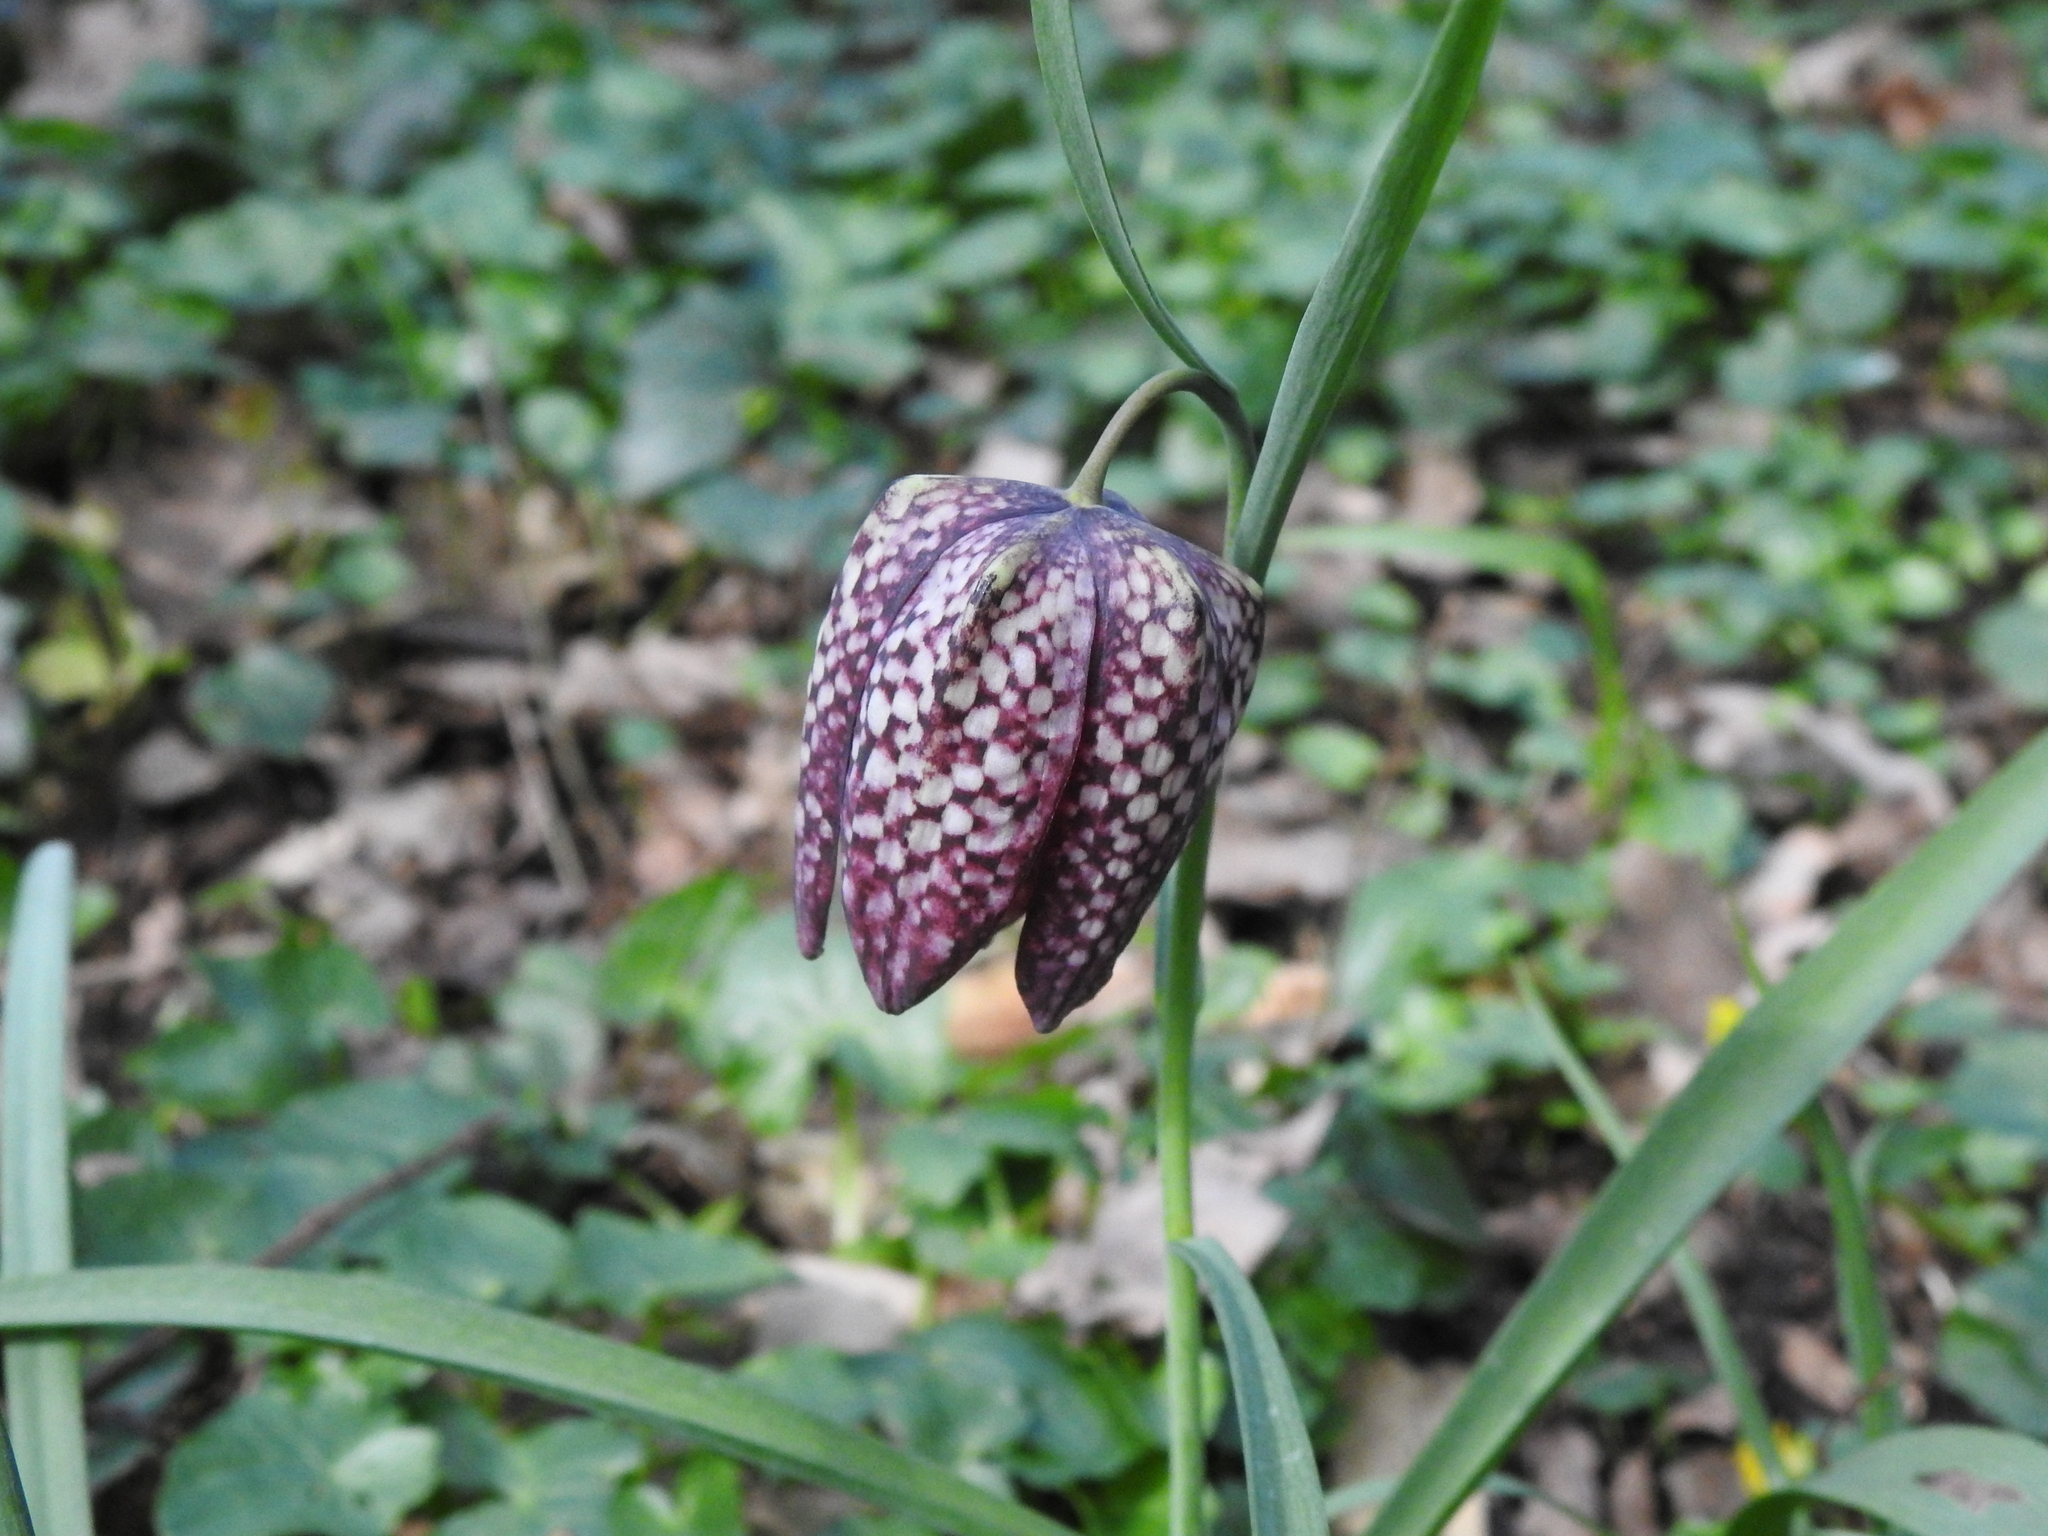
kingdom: Plantae
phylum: Tracheophyta
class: Liliopsida
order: Liliales
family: Liliaceae
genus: Fritillaria
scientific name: Fritillaria meleagris
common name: Fritillary
